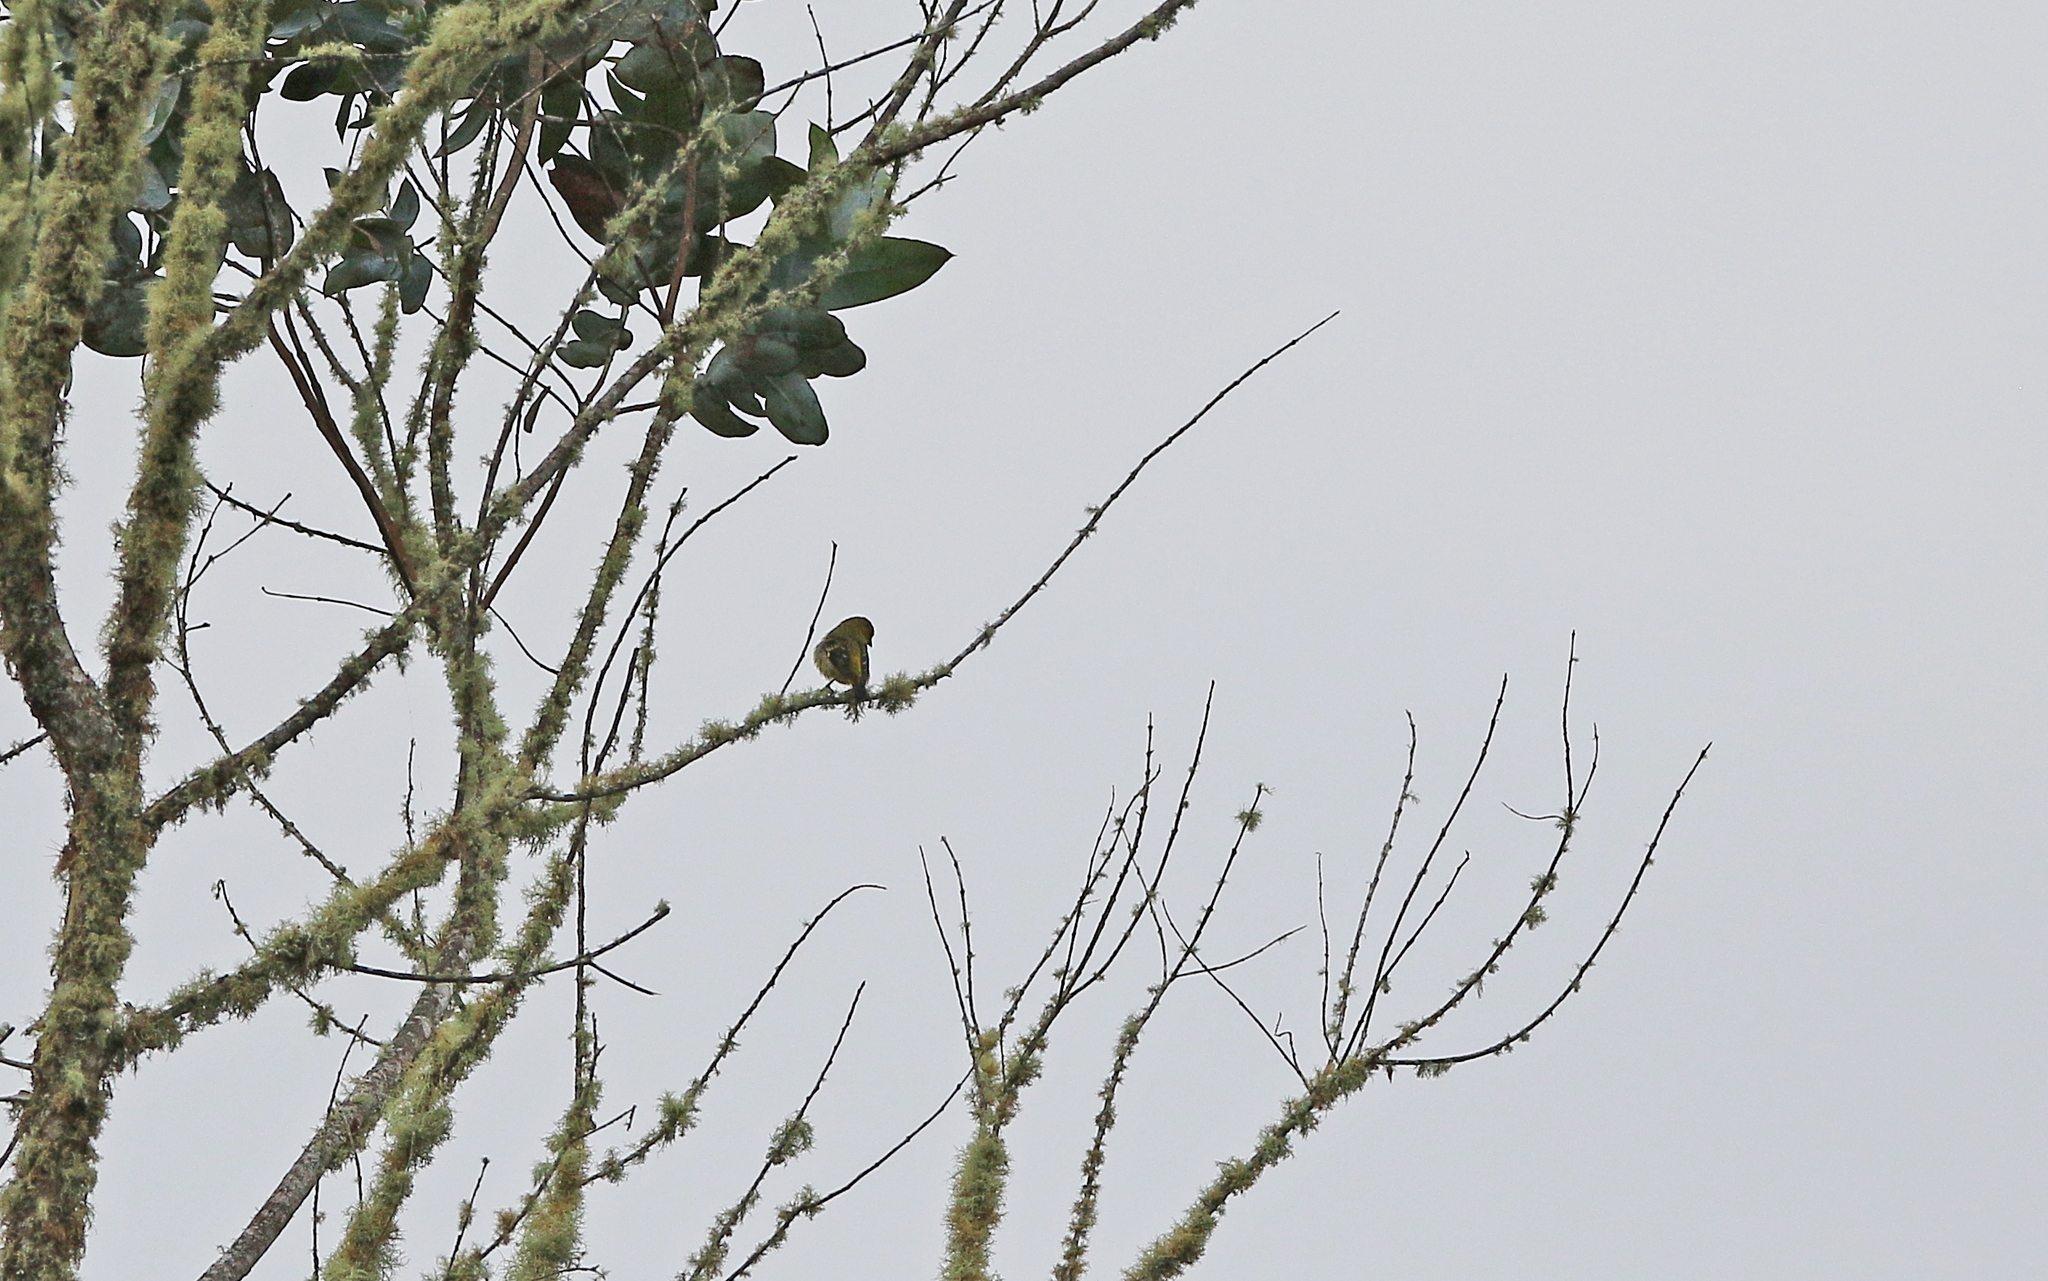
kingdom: Animalia
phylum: Chordata
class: Aves
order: Passeriformes
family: Fringillidae
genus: Spinus
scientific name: Spinus olivaceus
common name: Olivaceous siskin
